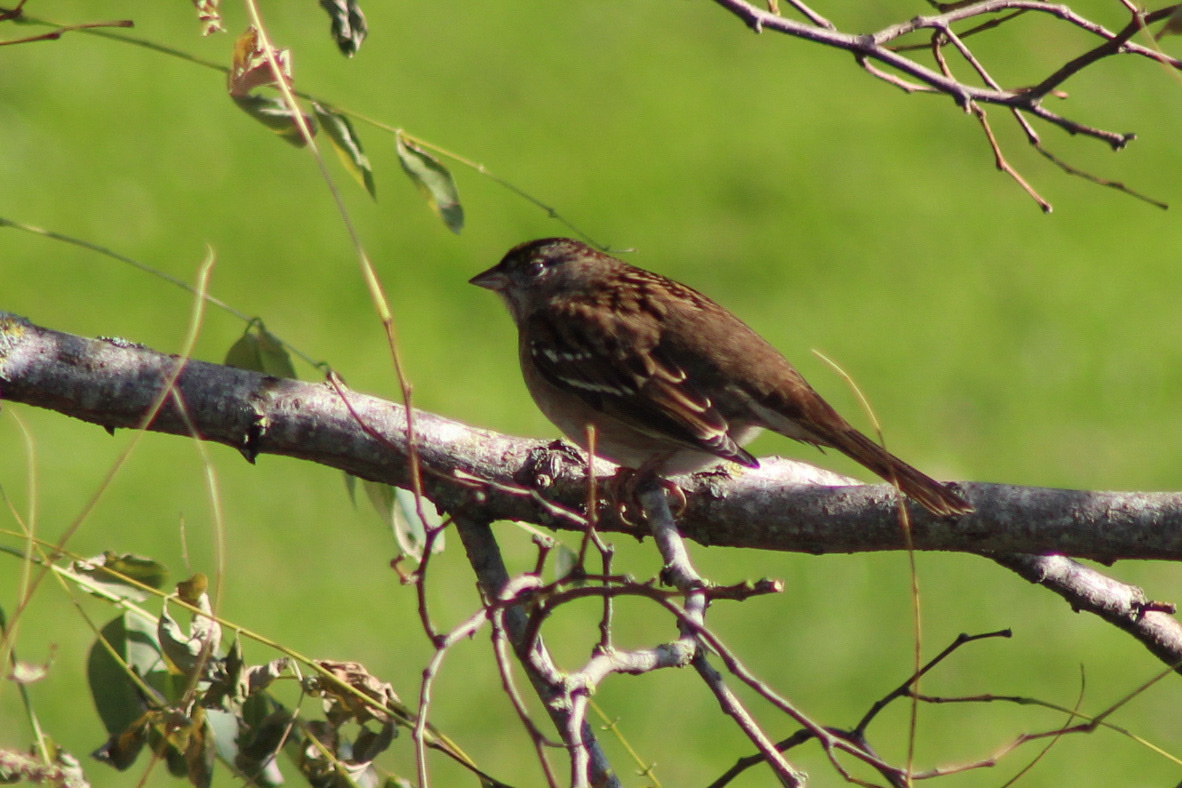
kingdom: Animalia
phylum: Chordata
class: Aves
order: Passeriformes
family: Passerellidae
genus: Zonotrichia
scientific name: Zonotrichia atricapilla
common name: Golden-crowned sparrow
